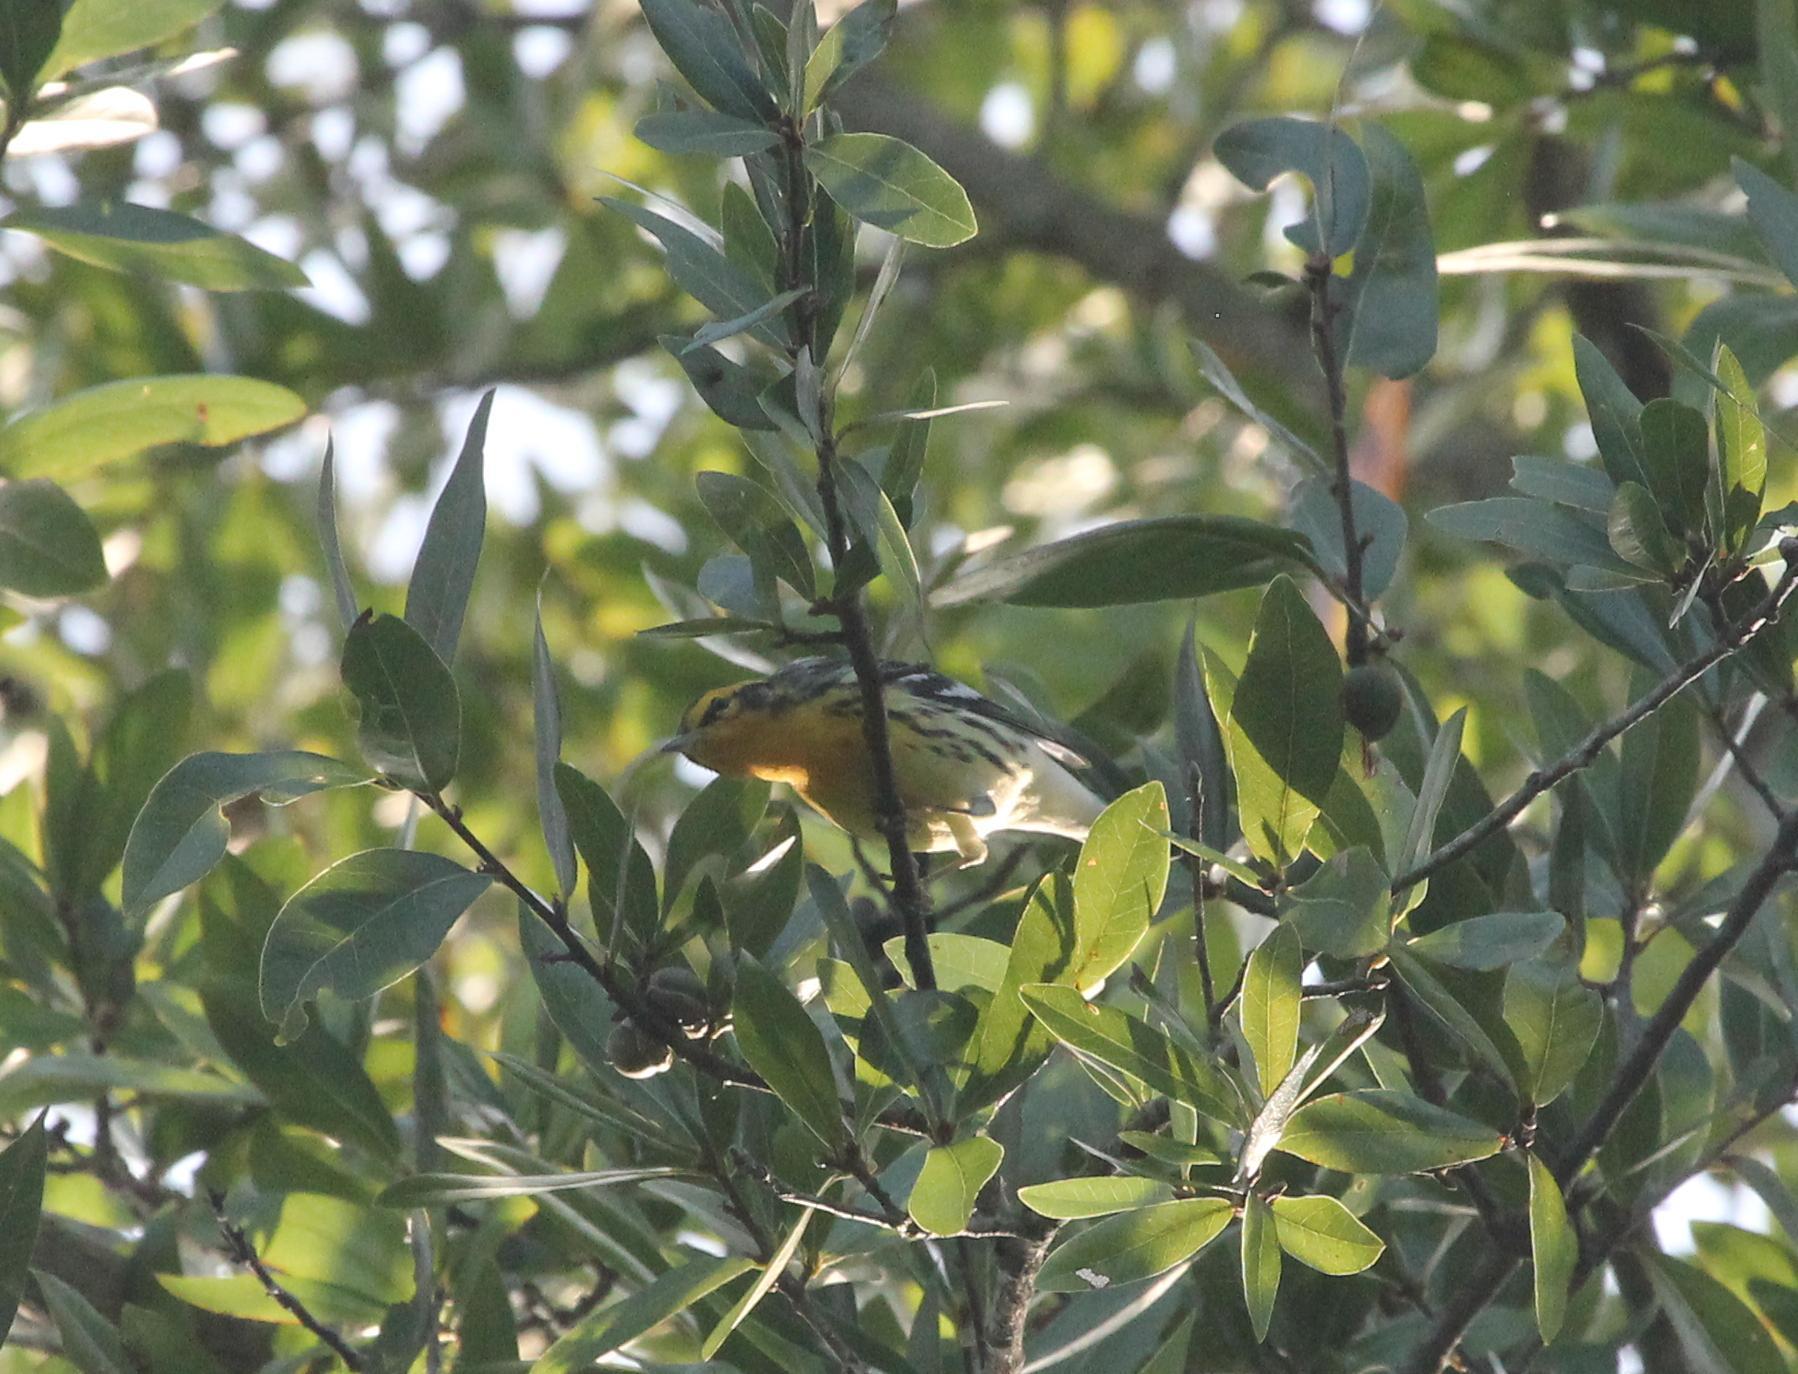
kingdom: Animalia
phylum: Chordata
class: Aves
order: Passeriformes
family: Parulidae
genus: Setophaga
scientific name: Setophaga fusca
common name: Blackburnian warbler
